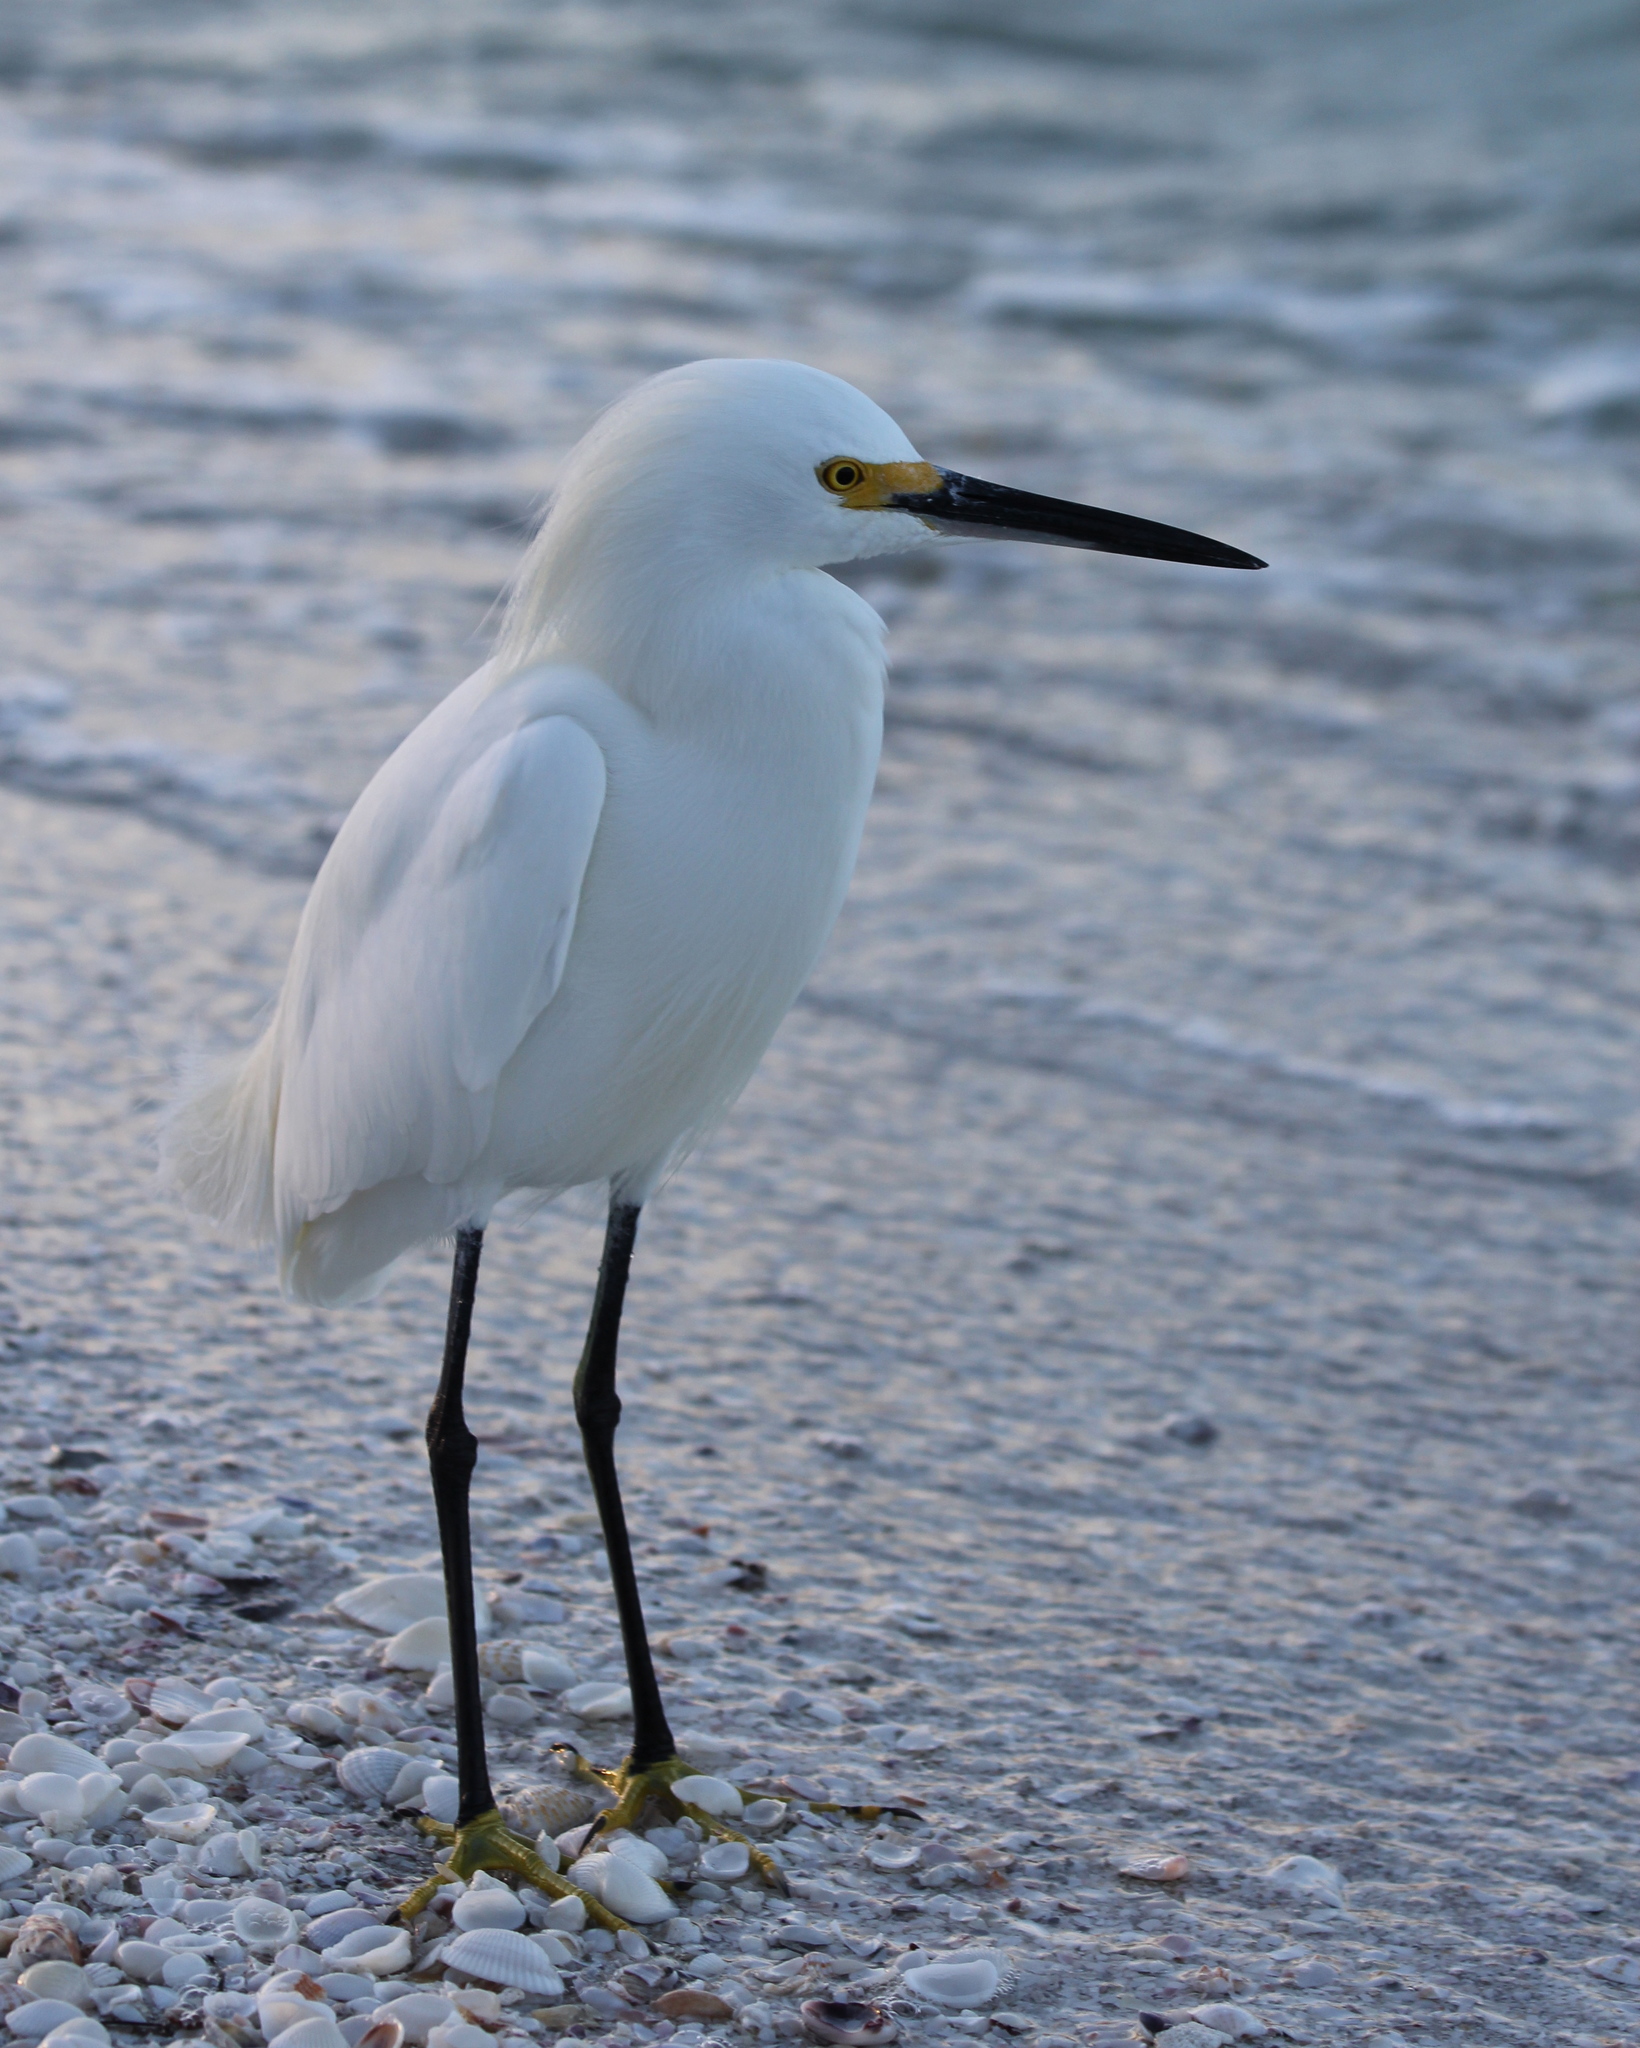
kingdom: Animalia
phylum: Chordata
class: Aves
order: Pelecaniformes
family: Ardeidae
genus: Egretta
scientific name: Egretta thula
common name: Snowy egret
